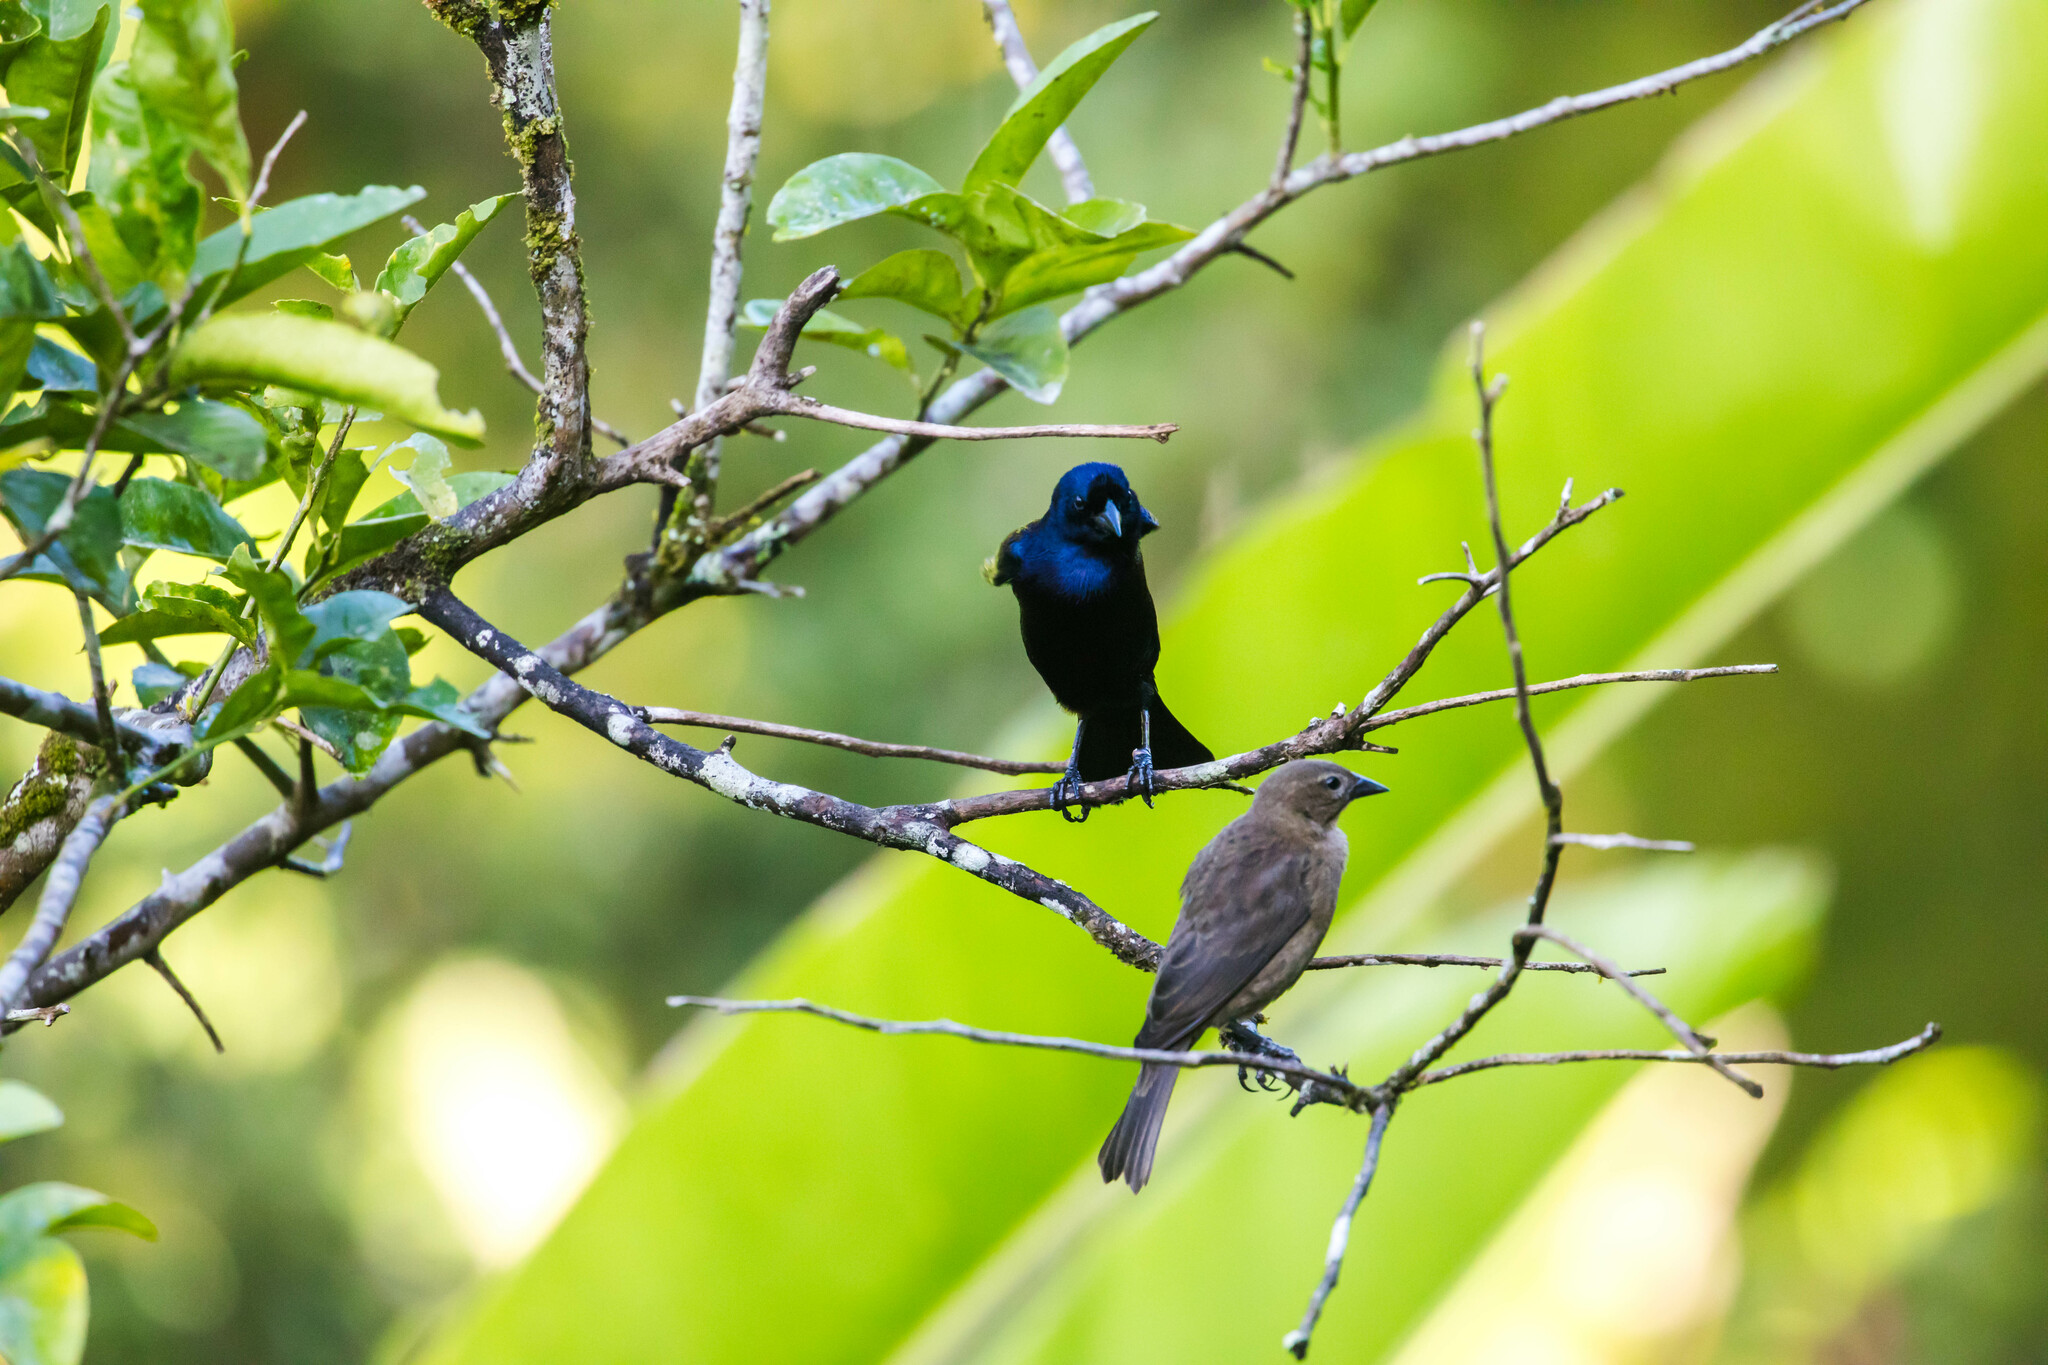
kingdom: Animalia
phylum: Chordata
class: Aves
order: Passeriformes
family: Icteridae
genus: Molothrus
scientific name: Molothrus bonariensis
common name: Shiny cowbird
